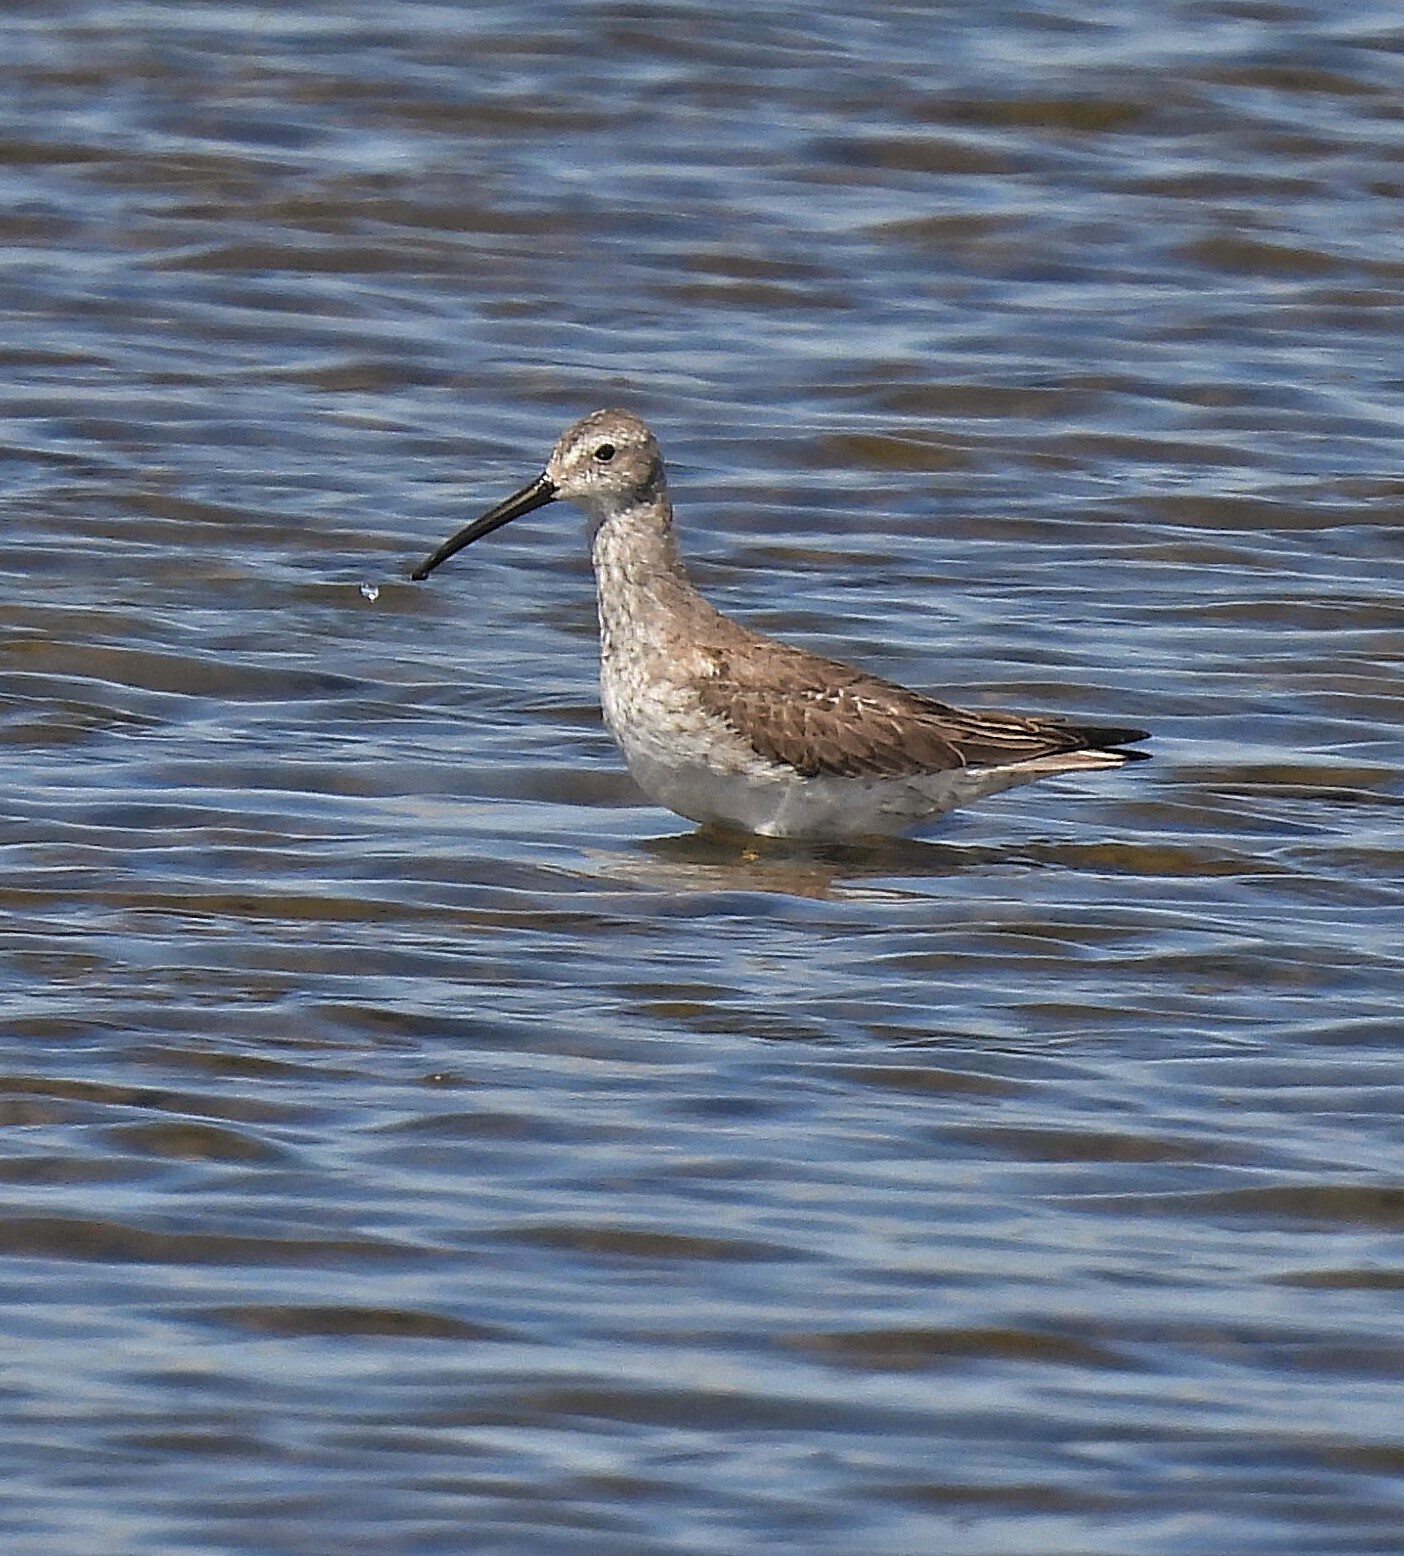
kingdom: Animalia
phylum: Chordata
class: Aves
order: Charadriiformes
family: Scolopacidae
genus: Calidris
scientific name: Calidris himantopus
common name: Stilt sandpiper
